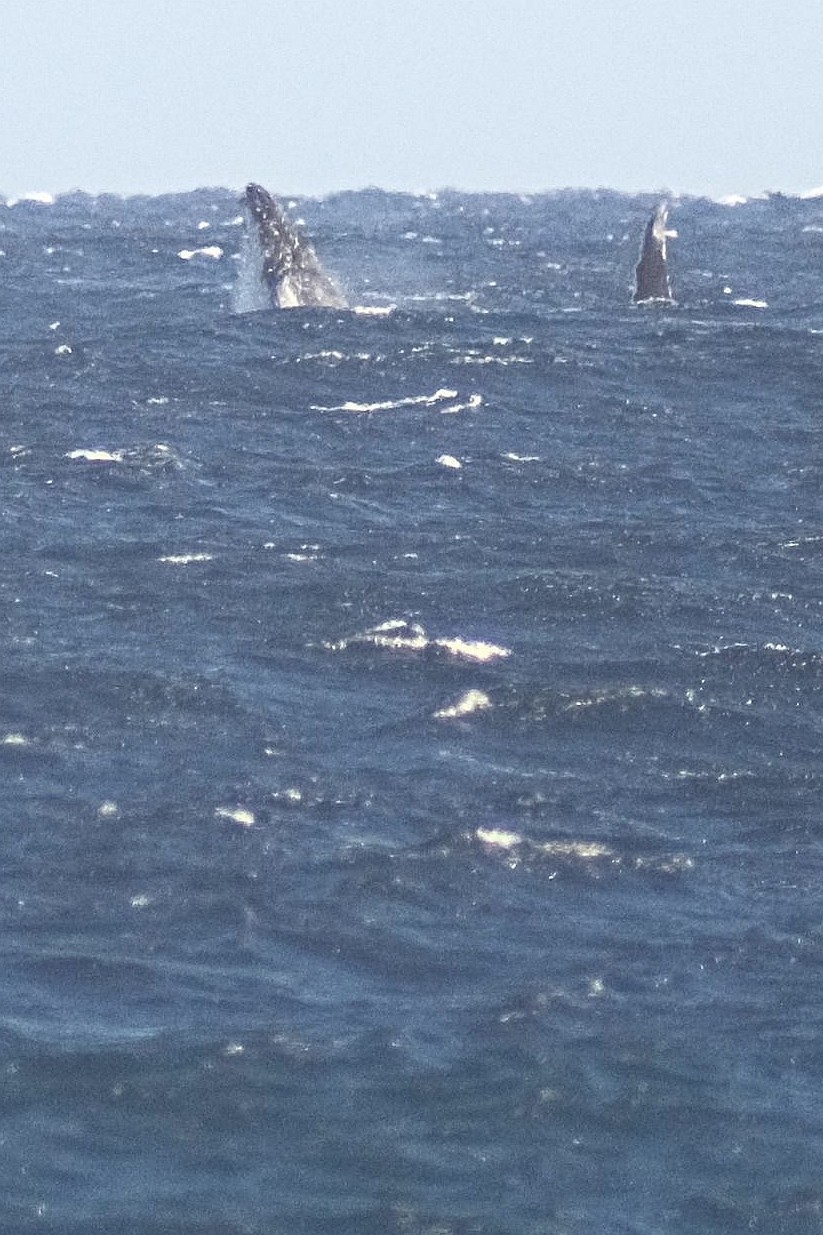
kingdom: Animalia
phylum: Chordata
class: Mammalia
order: Cetacea
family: Balaenopteridae
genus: Megaptera
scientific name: Megaptera novaeangliae
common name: Humpback whale
